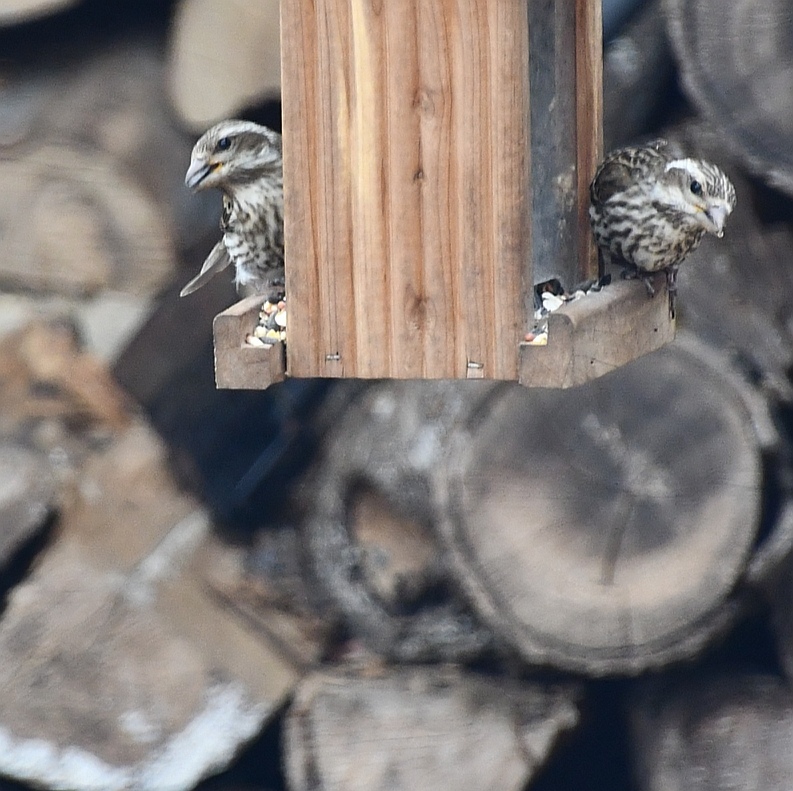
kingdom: Animalia
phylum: Chordata
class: Aves
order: Passeriformes
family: Fringillidae
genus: Haemorhous
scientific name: Haemorhous purpureus
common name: Purple finch
